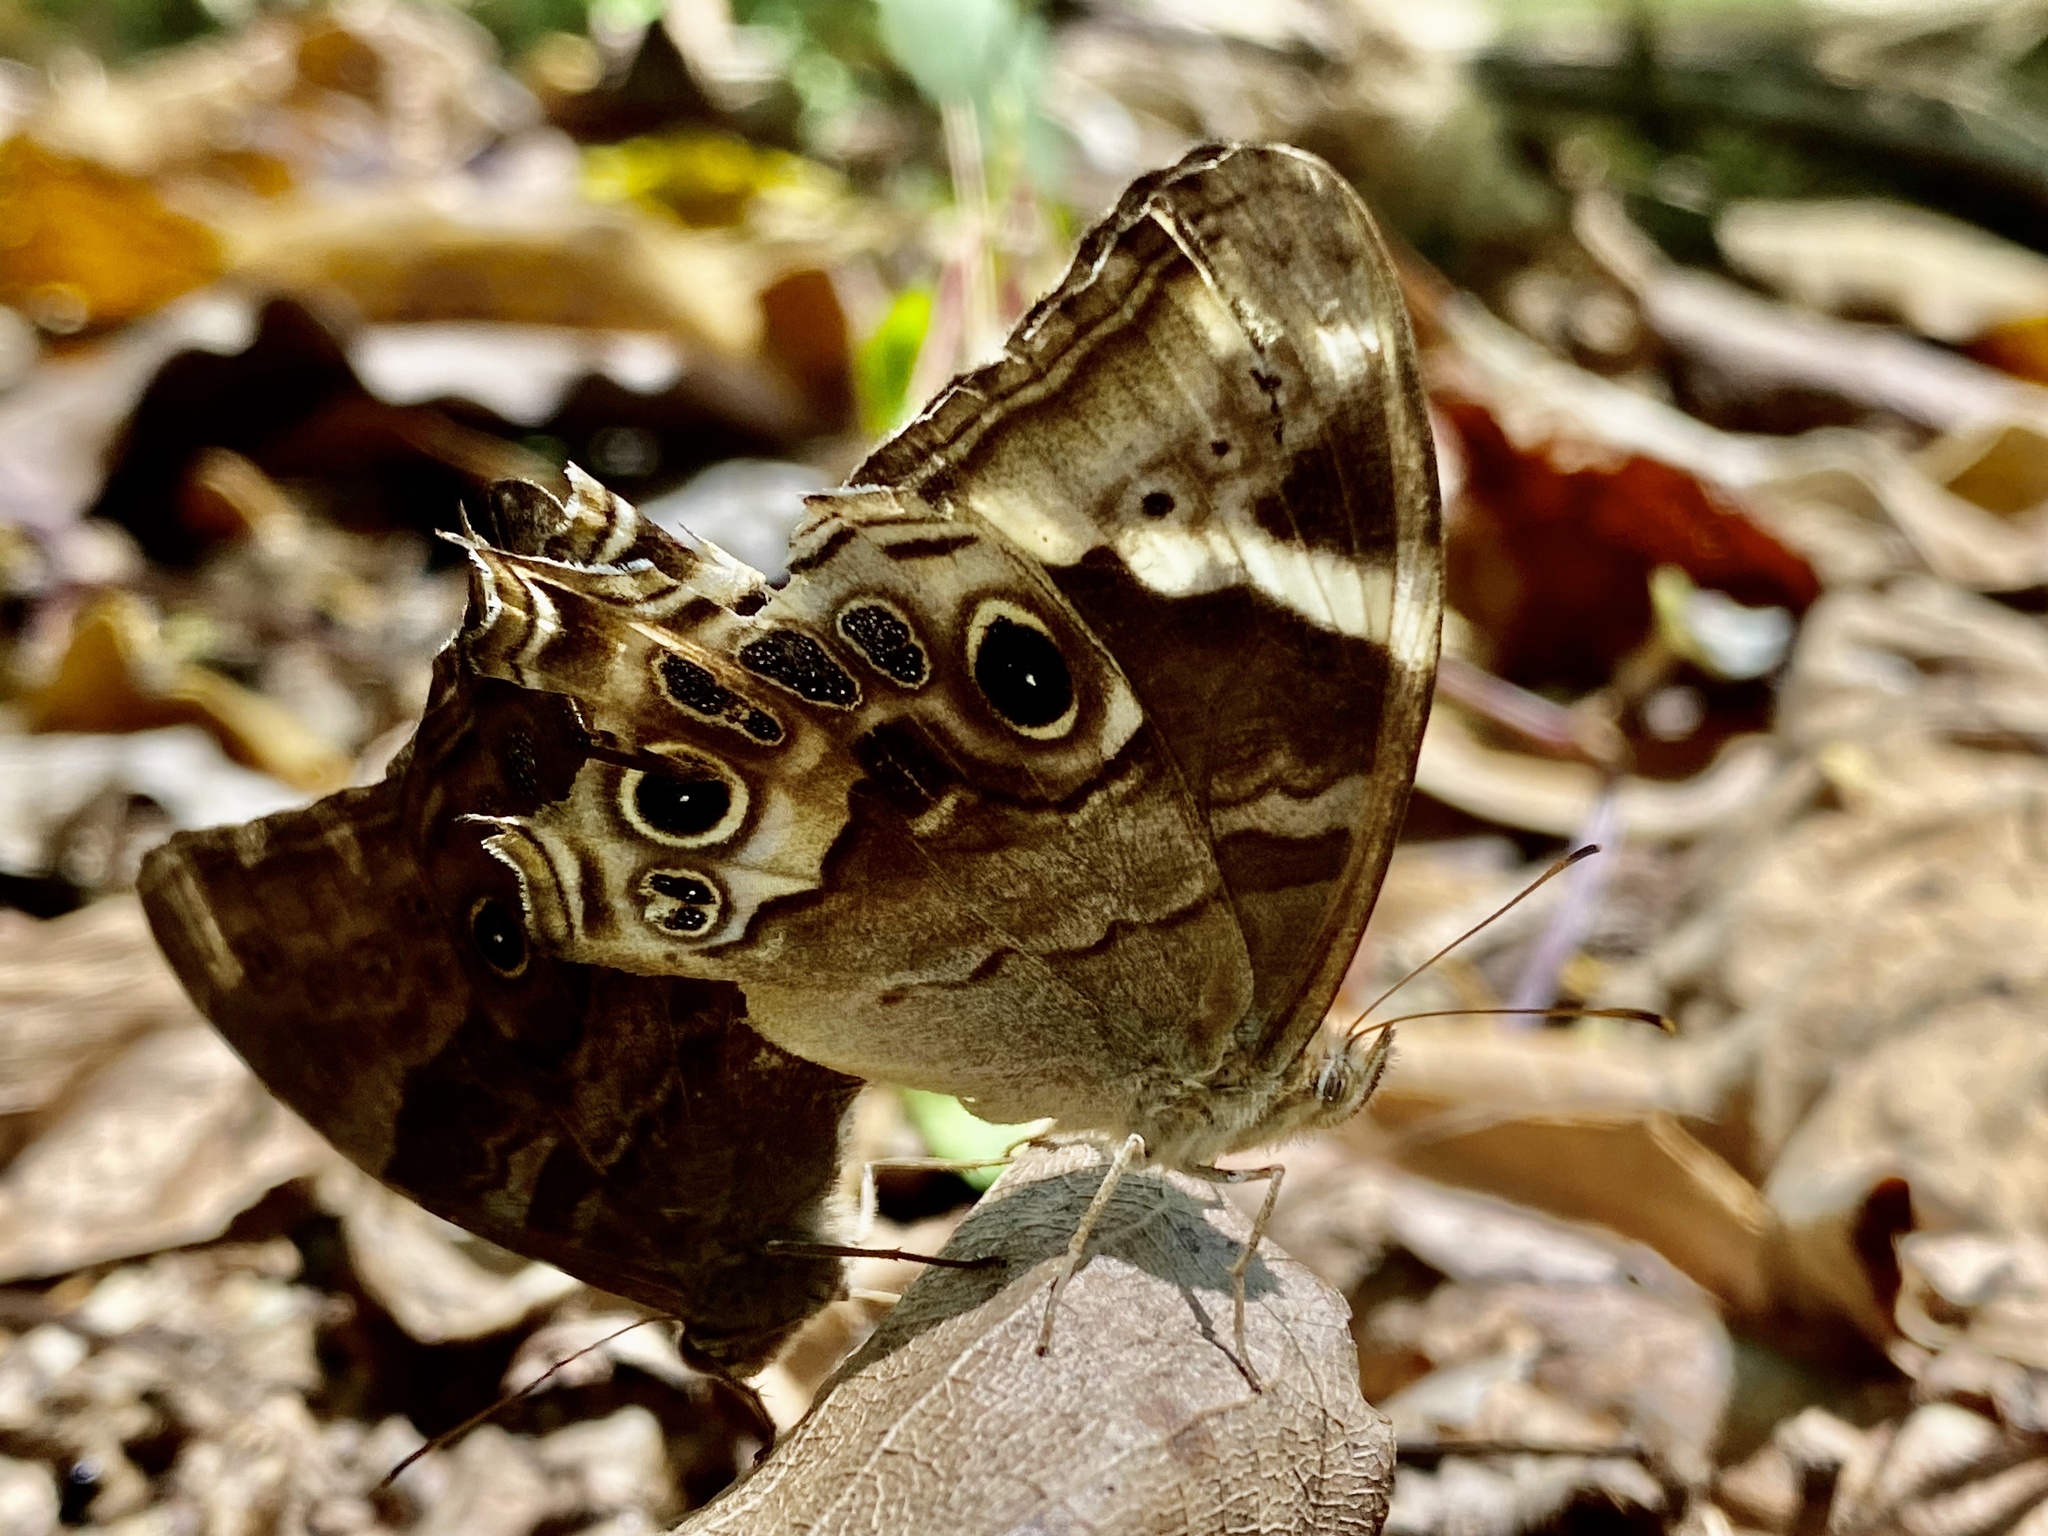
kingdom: Animalia
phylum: Arthropoda
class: Insecta
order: Lepidoptera
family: Nymphalidae
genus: Lethe
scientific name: Lethe drypetis
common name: Tamil treebrown
